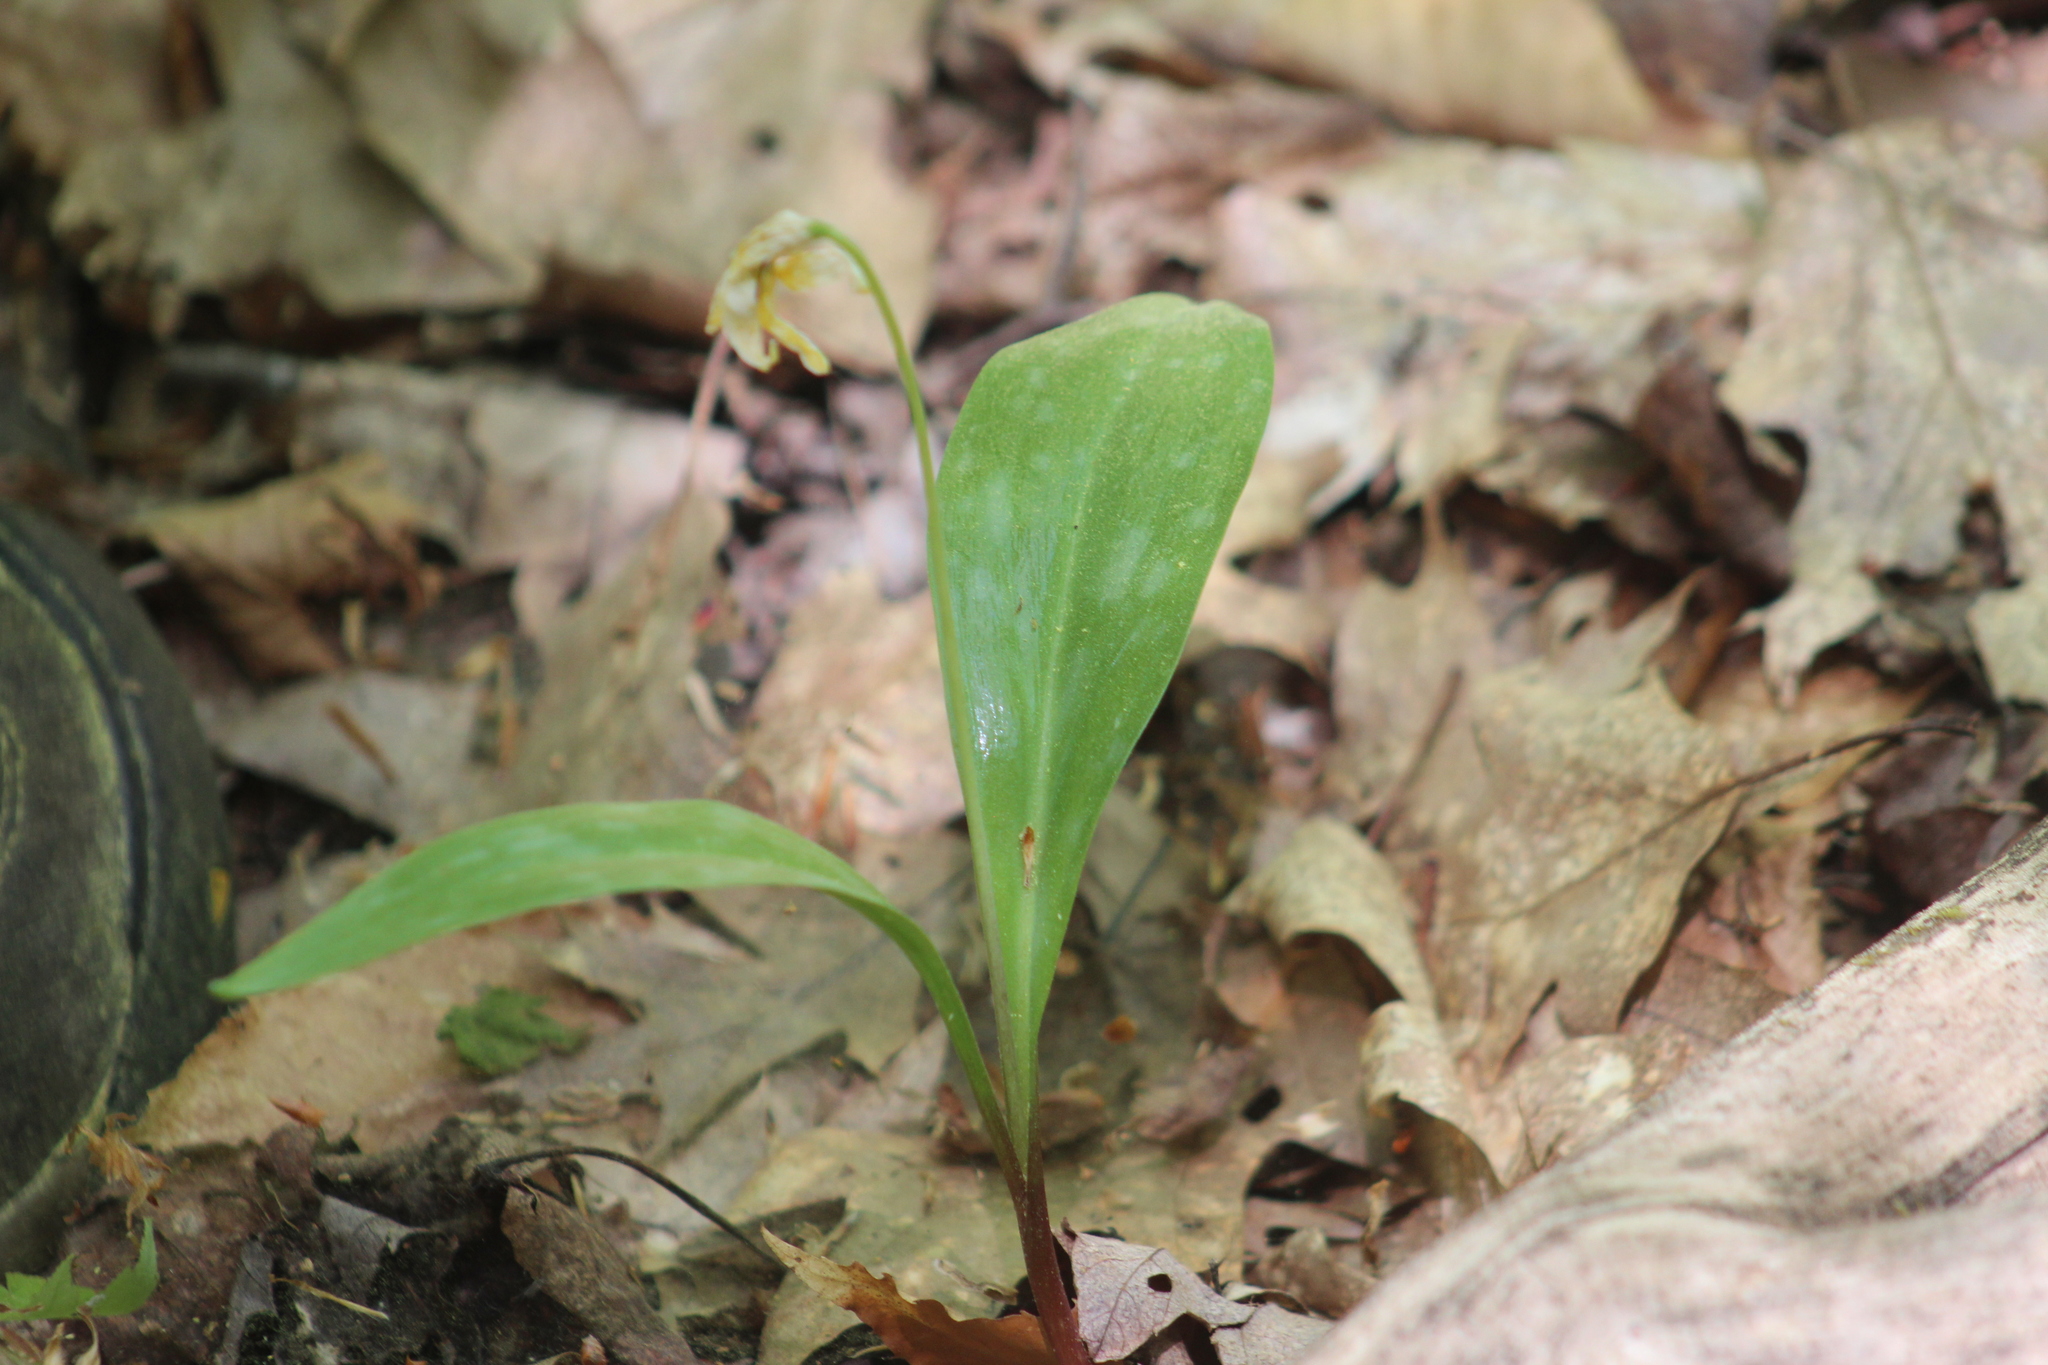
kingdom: Plantae
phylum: Tracheophyta
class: Liliopsida
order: Liliales
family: Liliaceae
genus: Erythronium
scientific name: Erythronium americanum
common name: Yellow adder's-tongue
